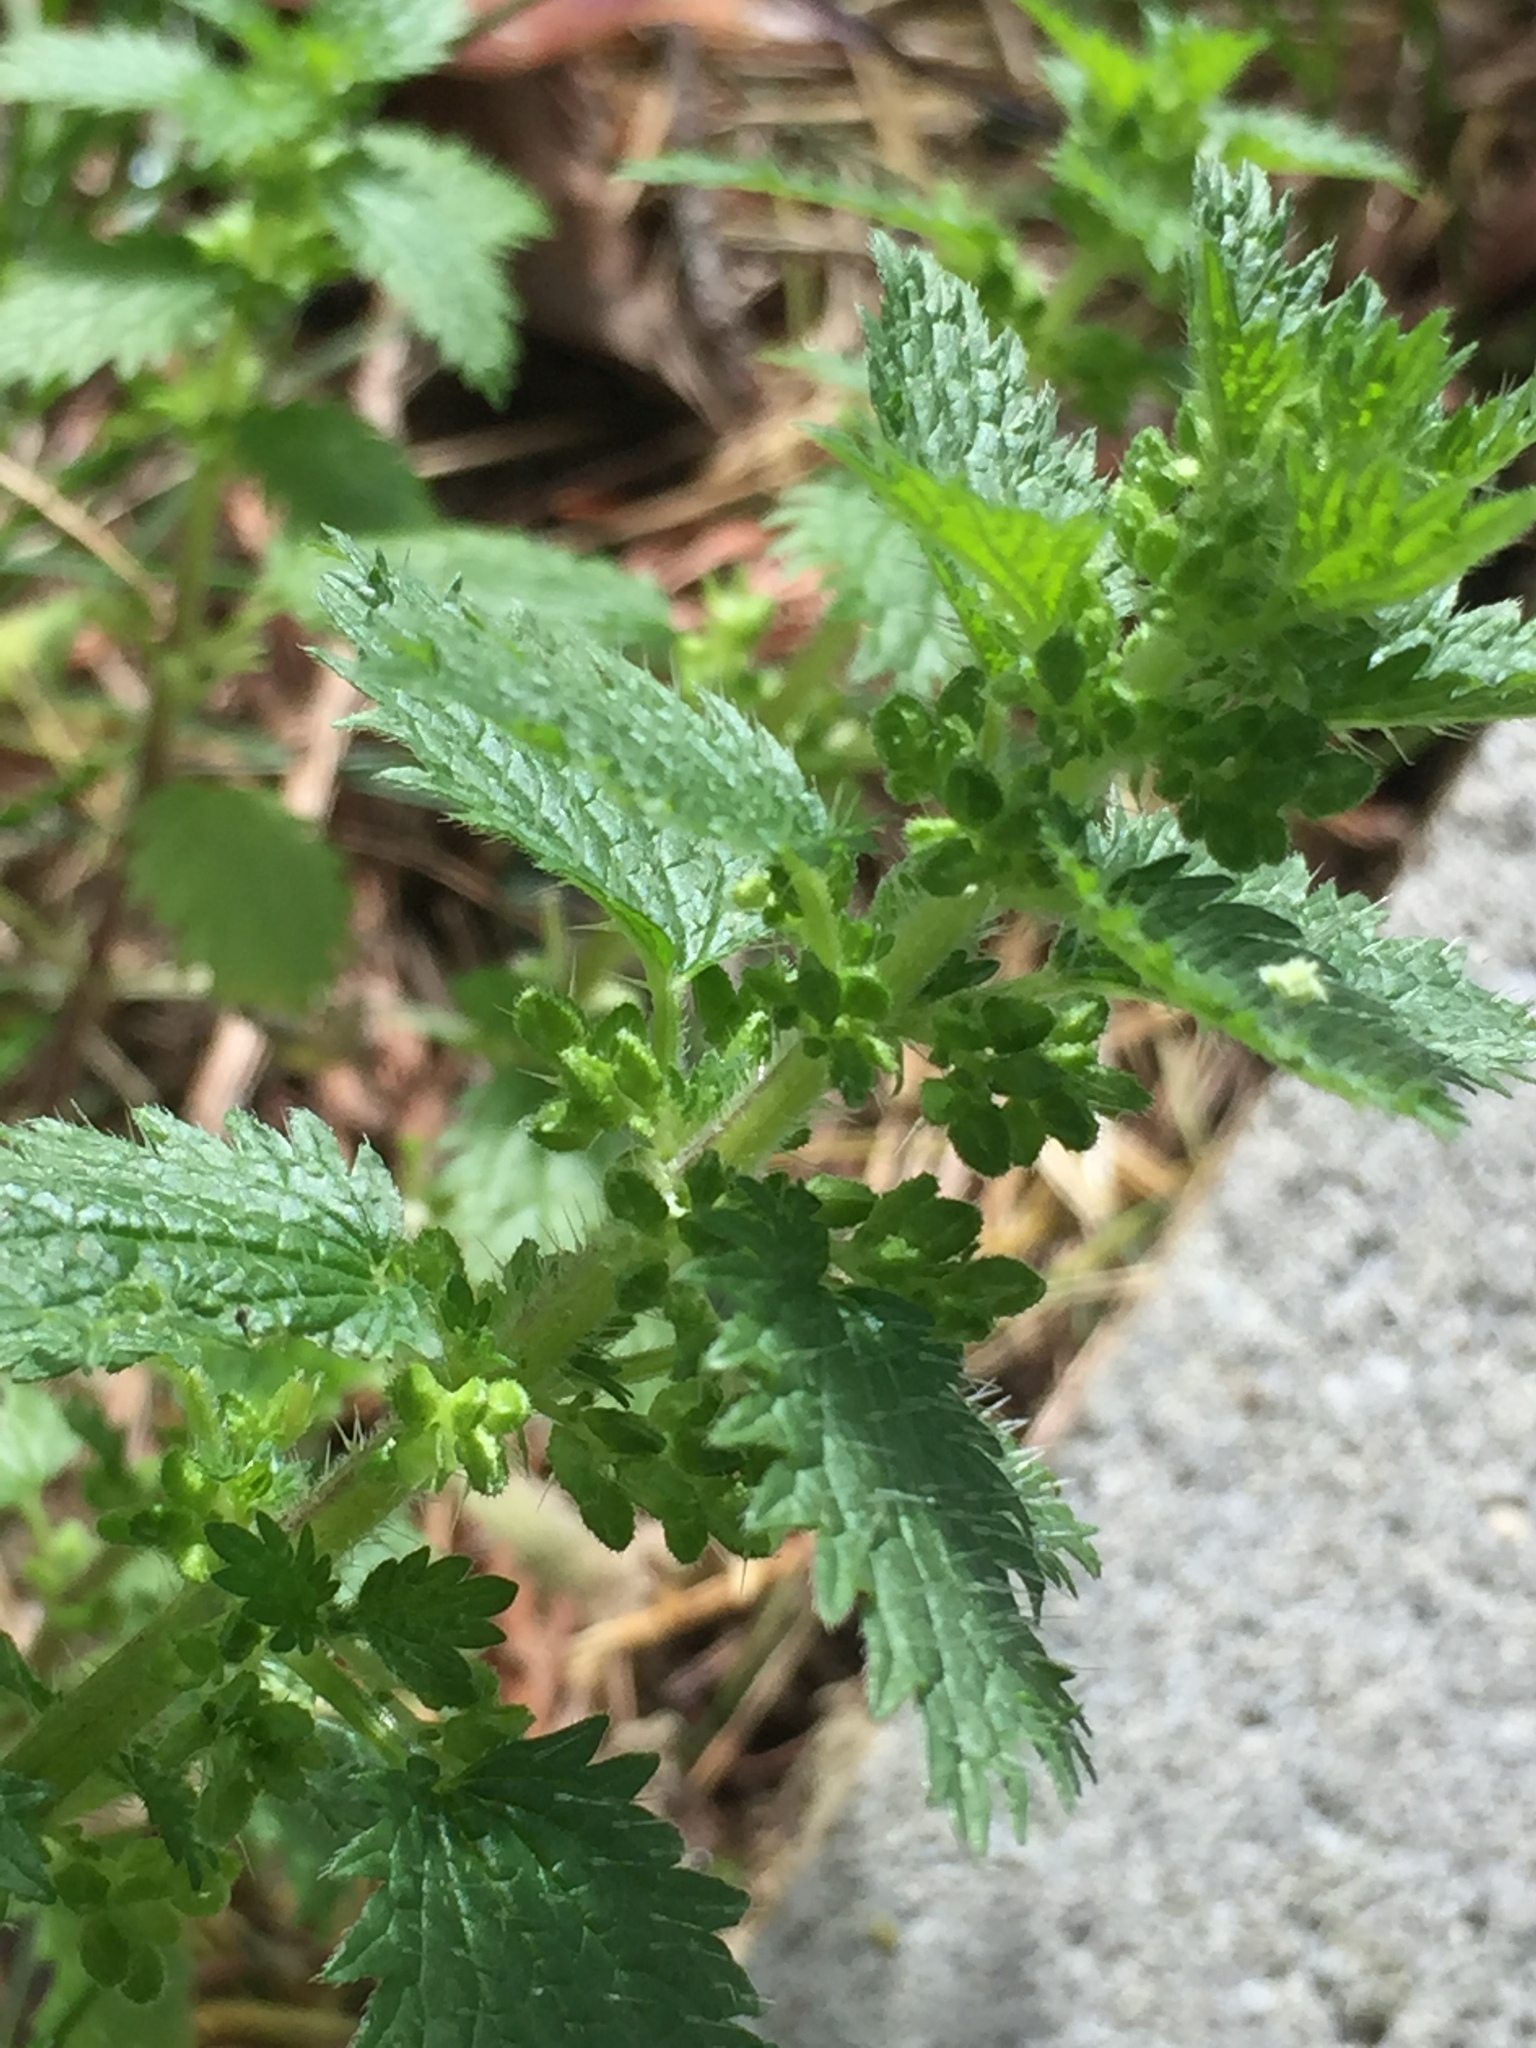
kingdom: Plantae
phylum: Tracheophyta
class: Magnoliopsida
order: Rosales
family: Urticaceae
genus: Urtica
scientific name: Urtica urens
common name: Dwarf nettle
